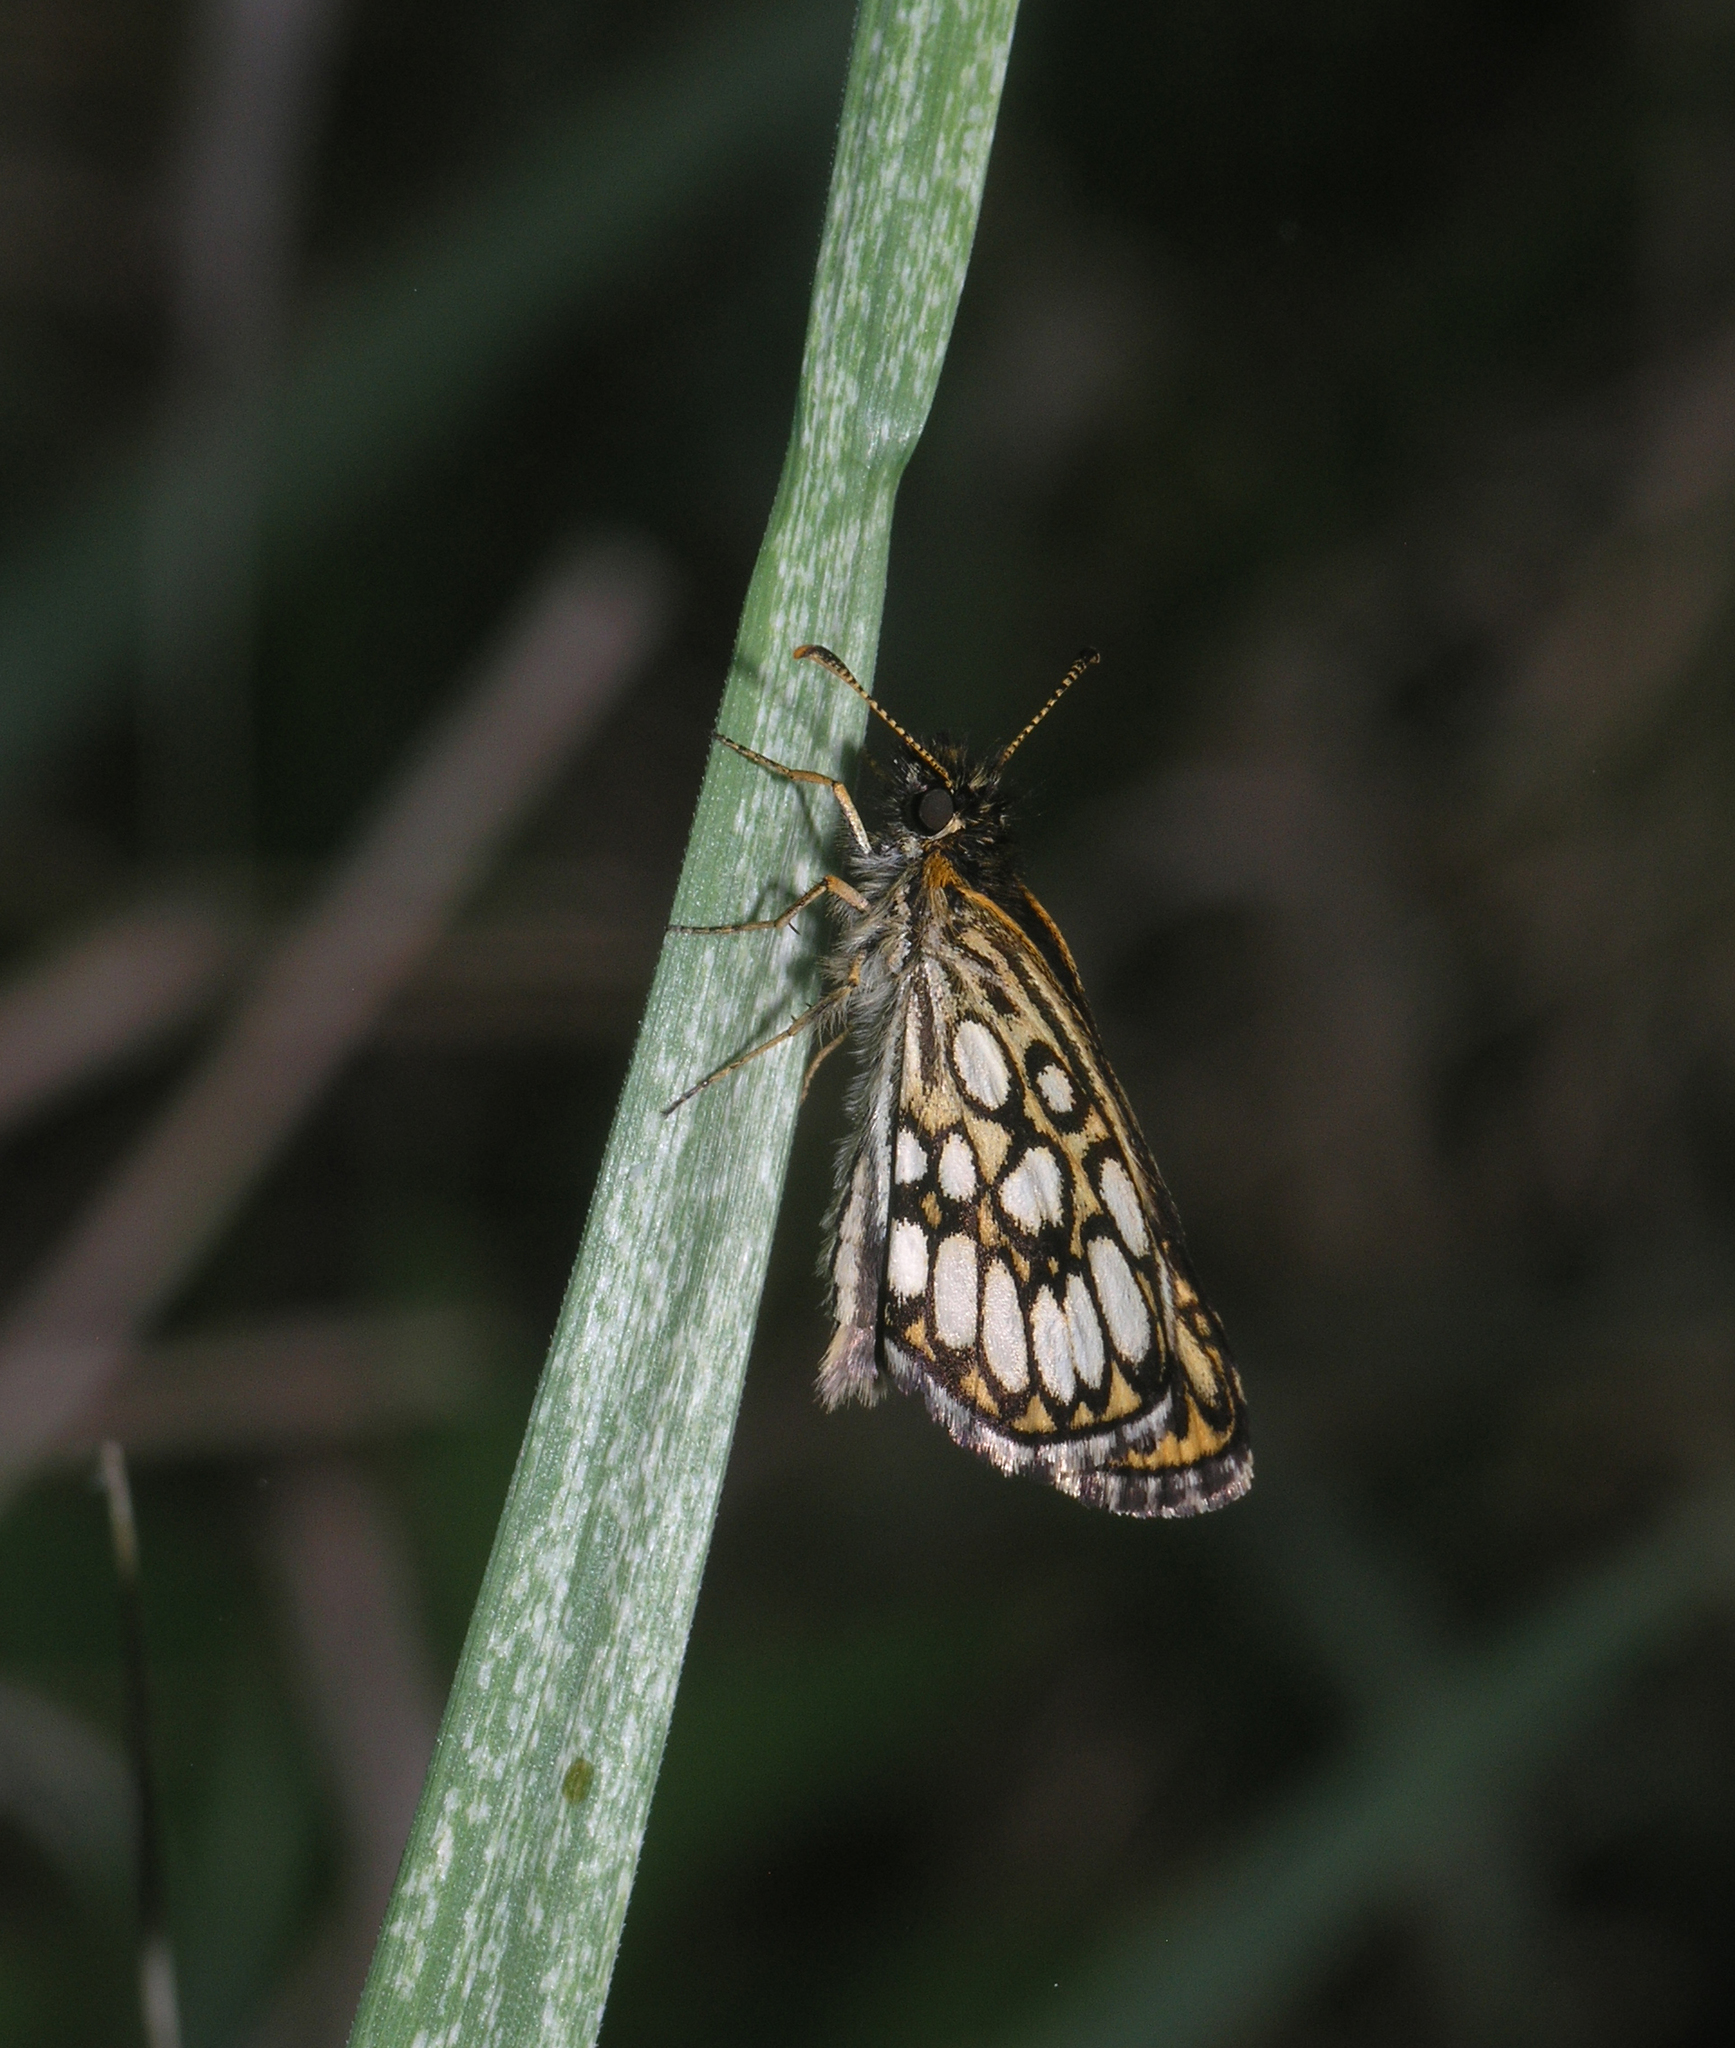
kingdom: Animalia
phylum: Arthropoda
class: Insecta
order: Lepidoptera
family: Hesperiidae
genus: Heteropterus
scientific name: Heteropterus morpheus
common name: Large chequered skipper
